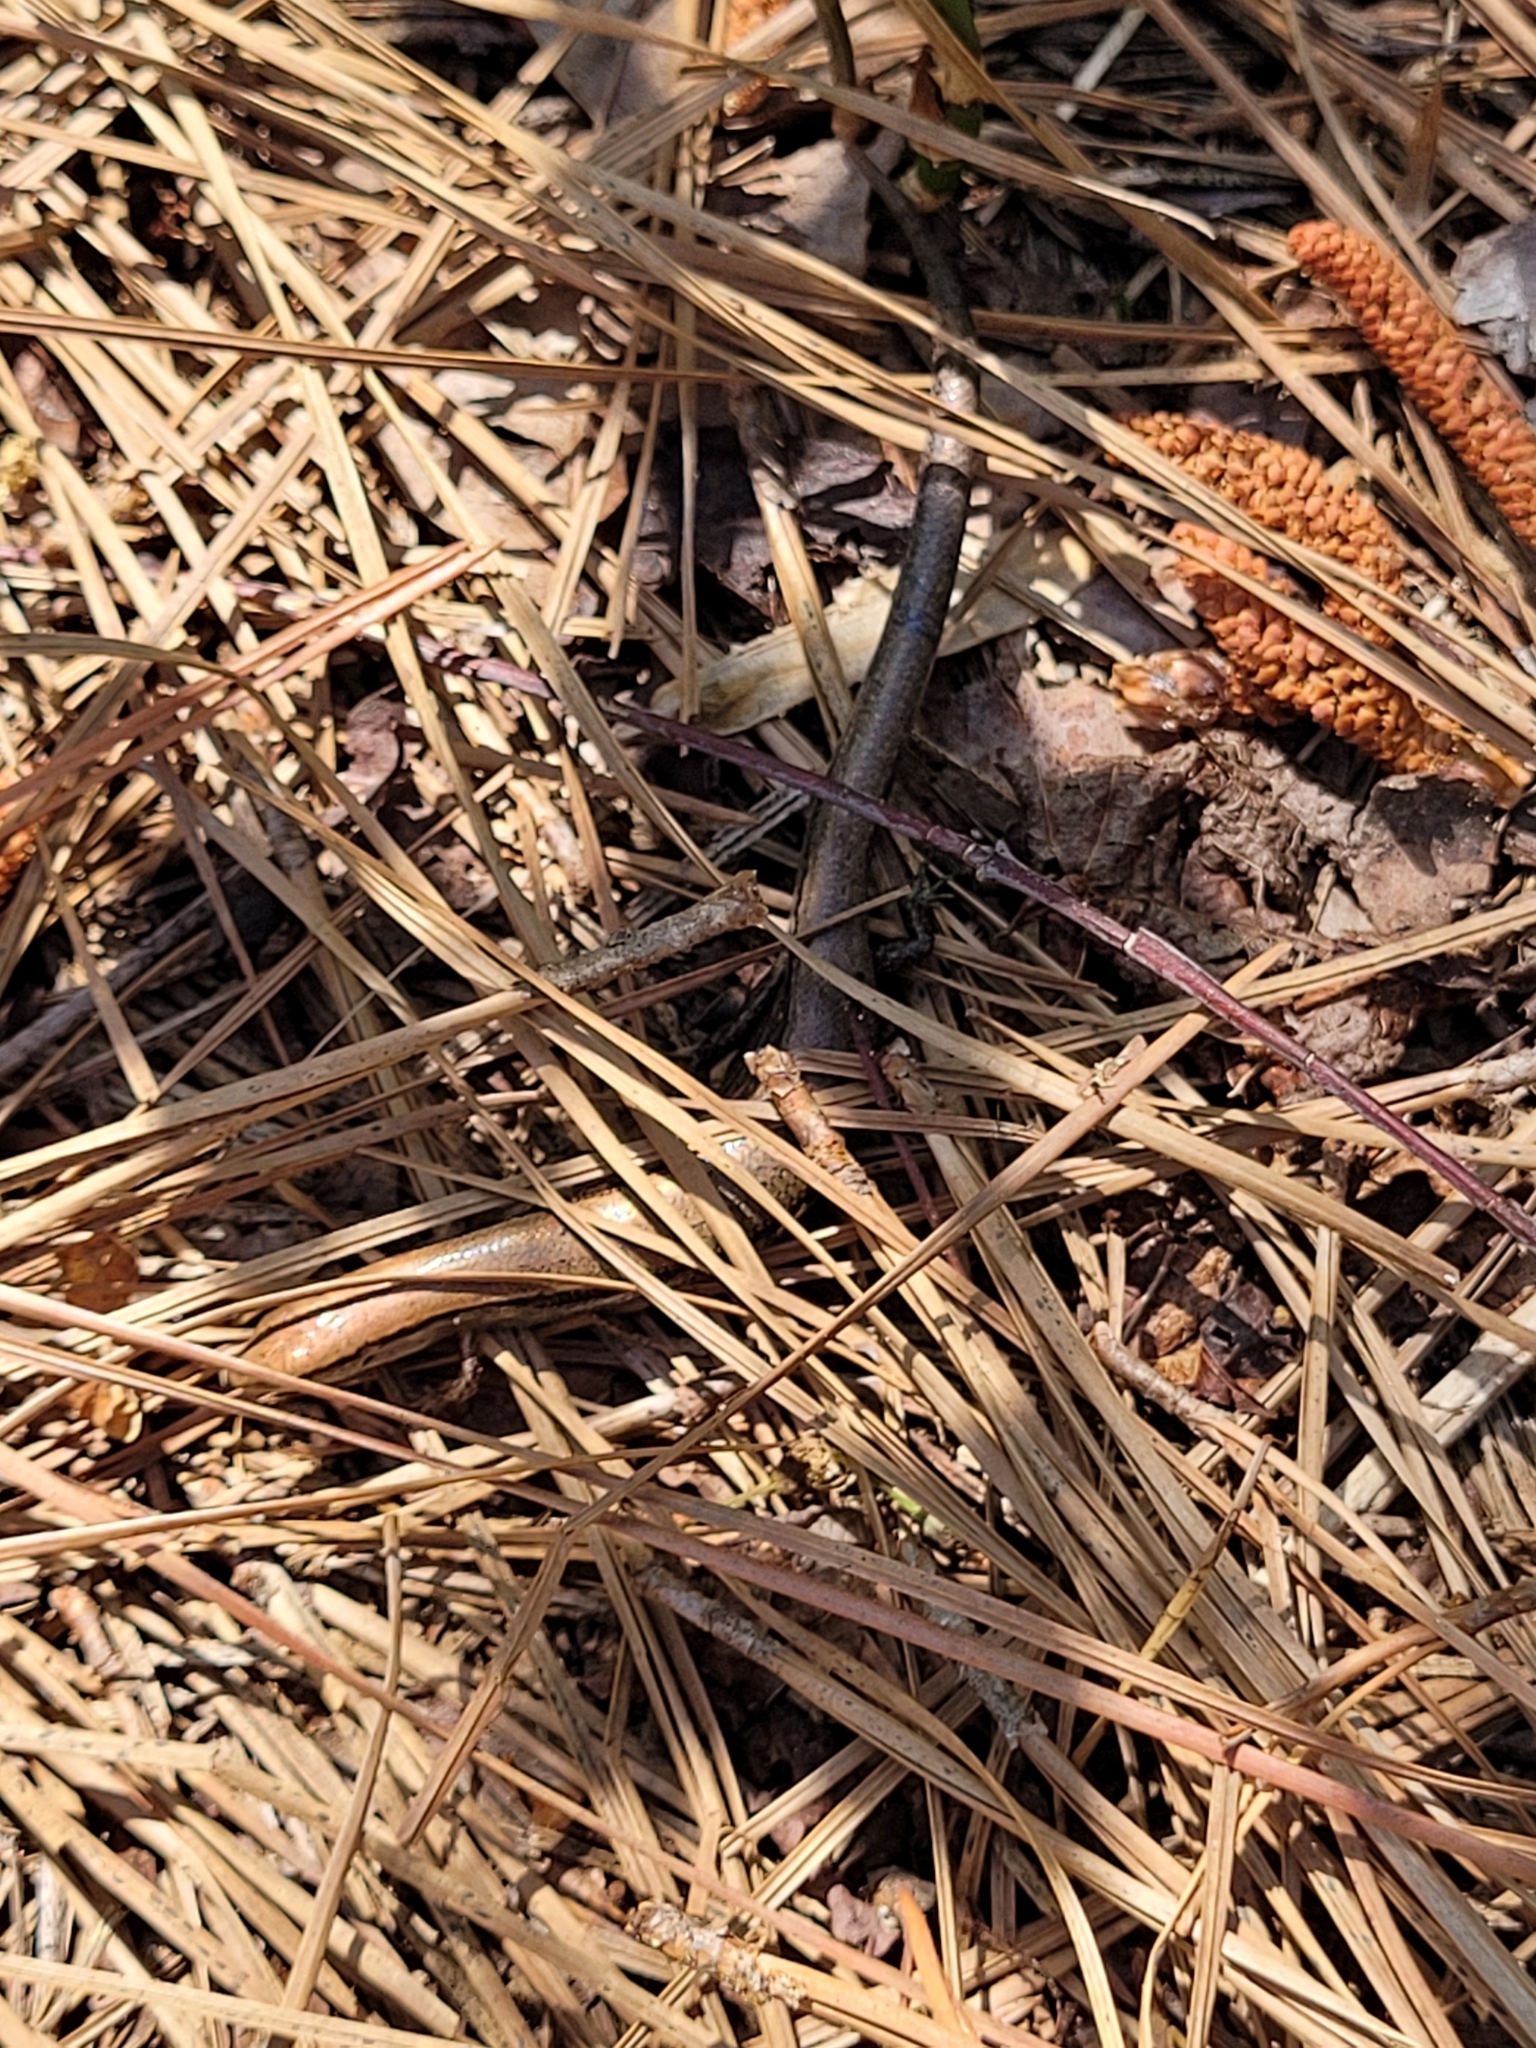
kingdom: Animalia
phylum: Chordata
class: Squamata
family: Scincidae
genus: Scincella
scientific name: Scincella lateralis
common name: Ground skink
